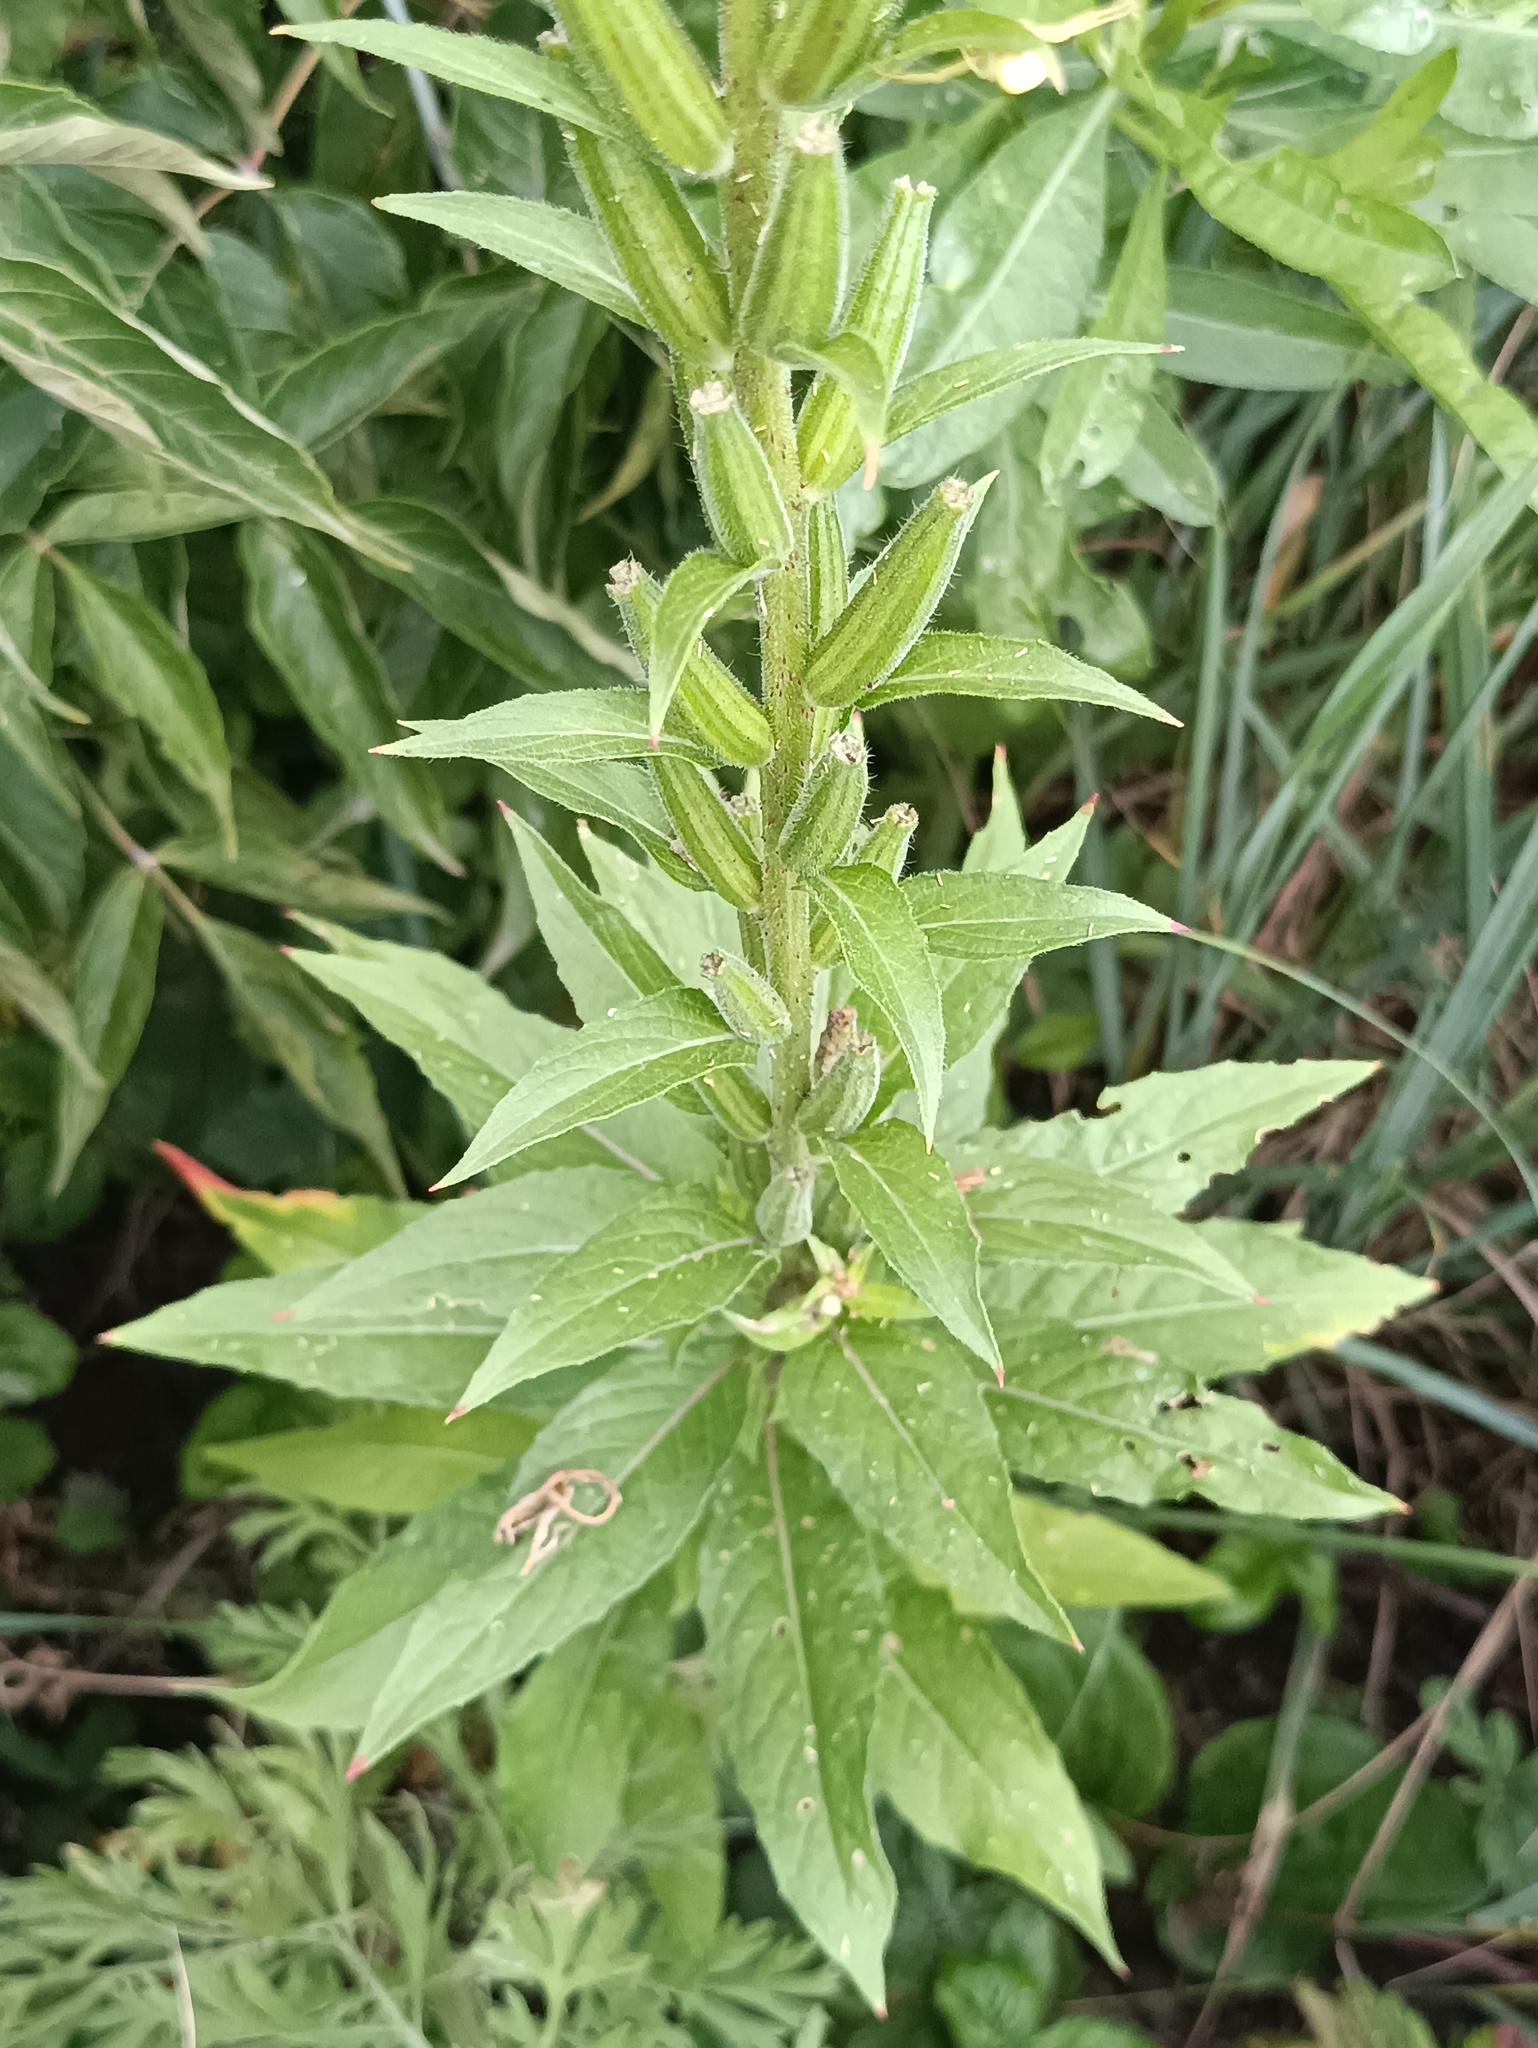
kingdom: Plantae
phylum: Tracheophyta
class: Magnoliopsida
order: Myrtales
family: Onagraceae
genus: Oenothera
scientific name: Oenothera rubricaulis
